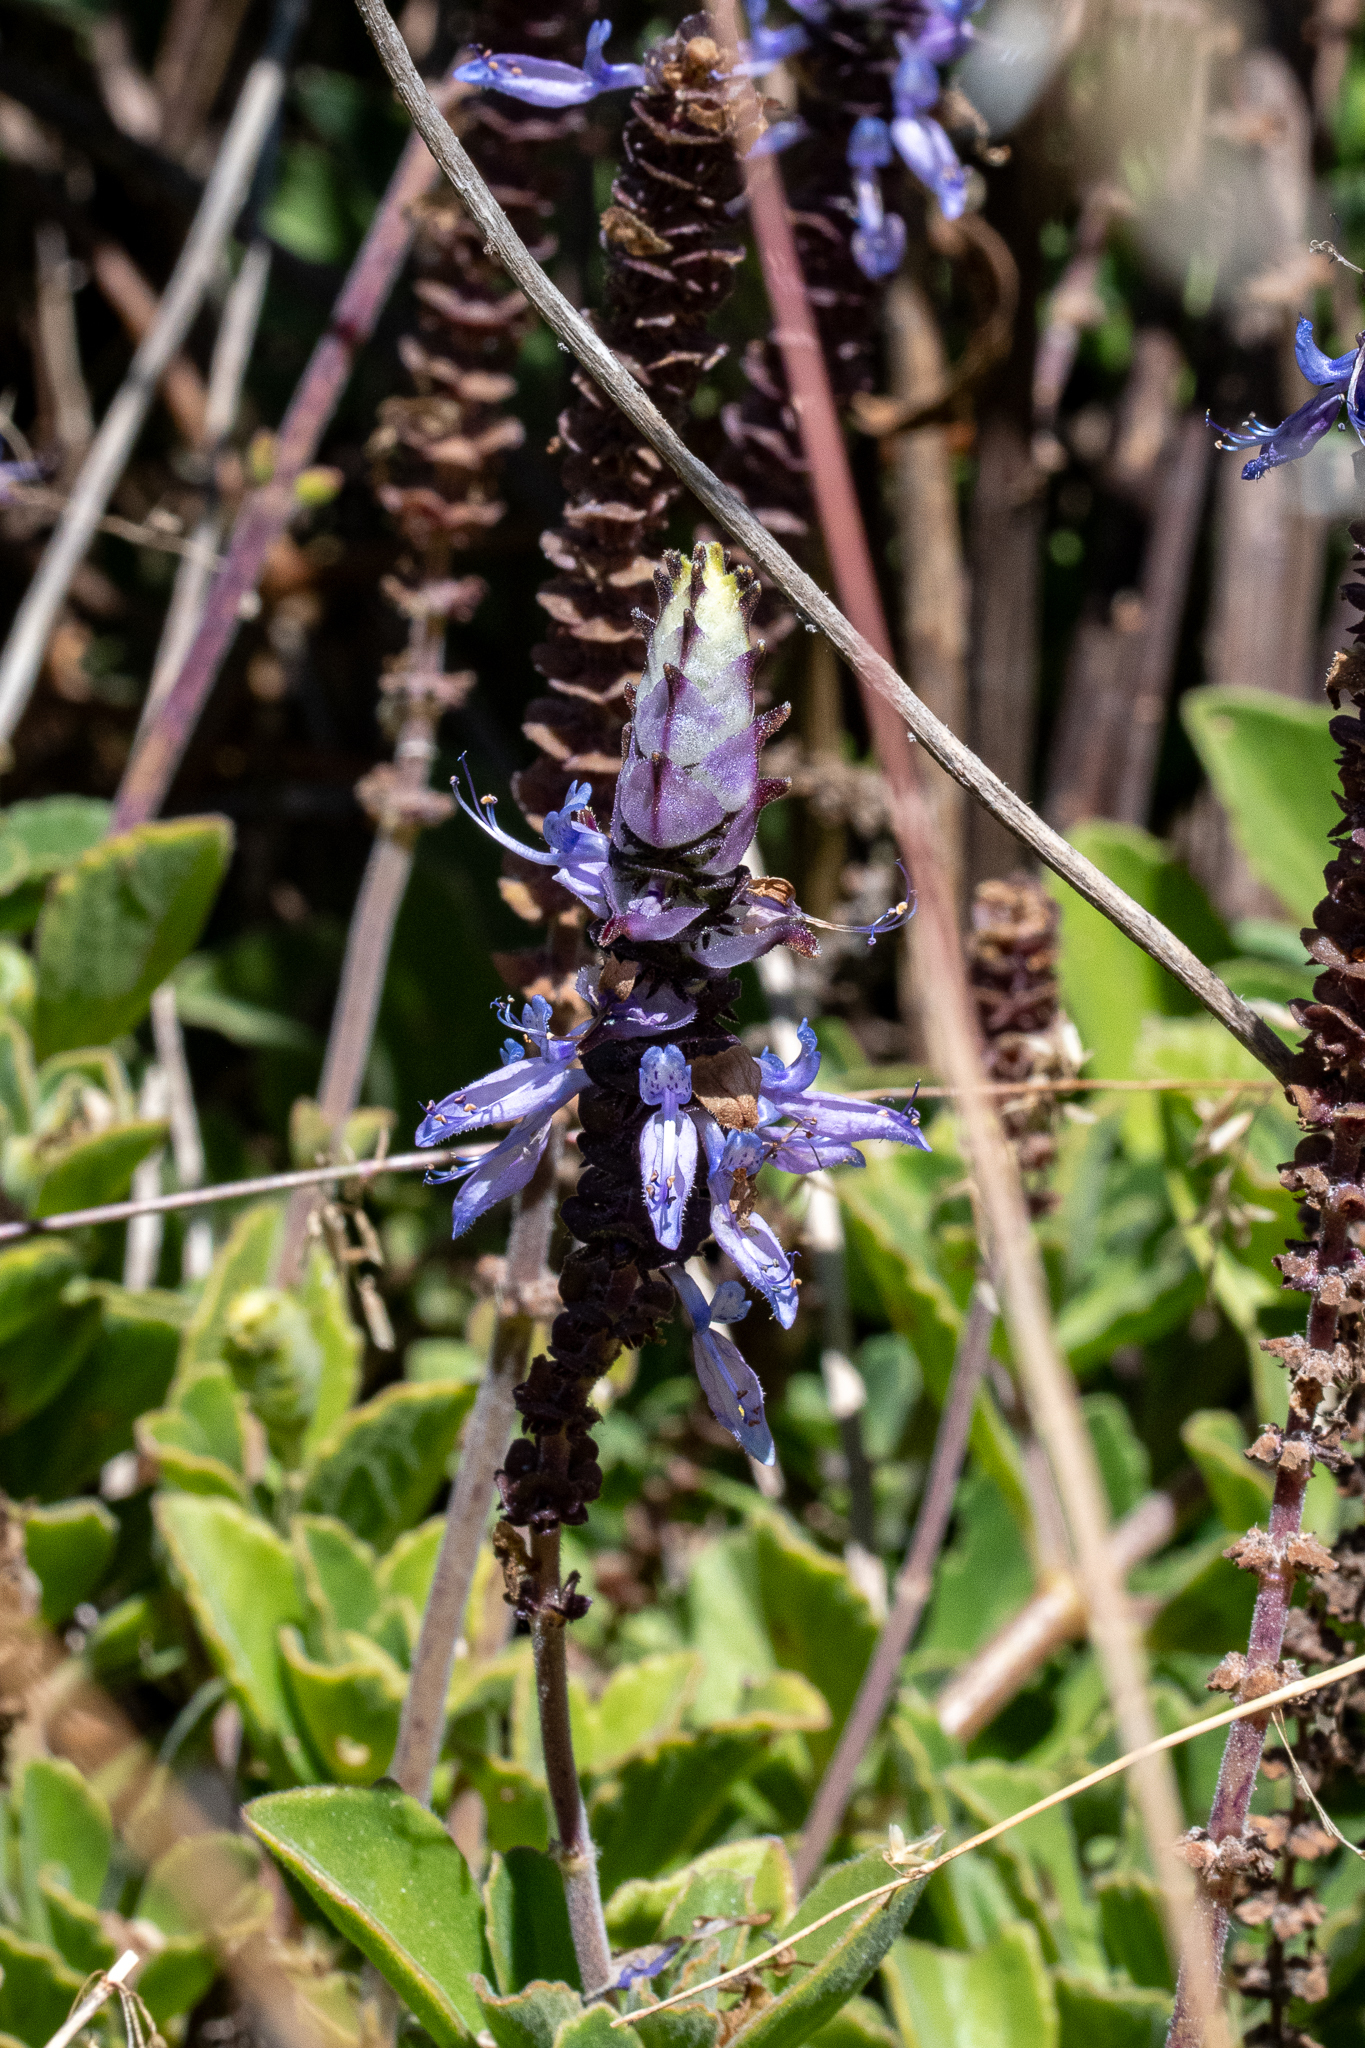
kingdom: Plantae
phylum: Tracheophyta
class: Magnoliopsida
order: Lamiales
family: Lamiaceae
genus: Coleus
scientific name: Coleus neochilus
